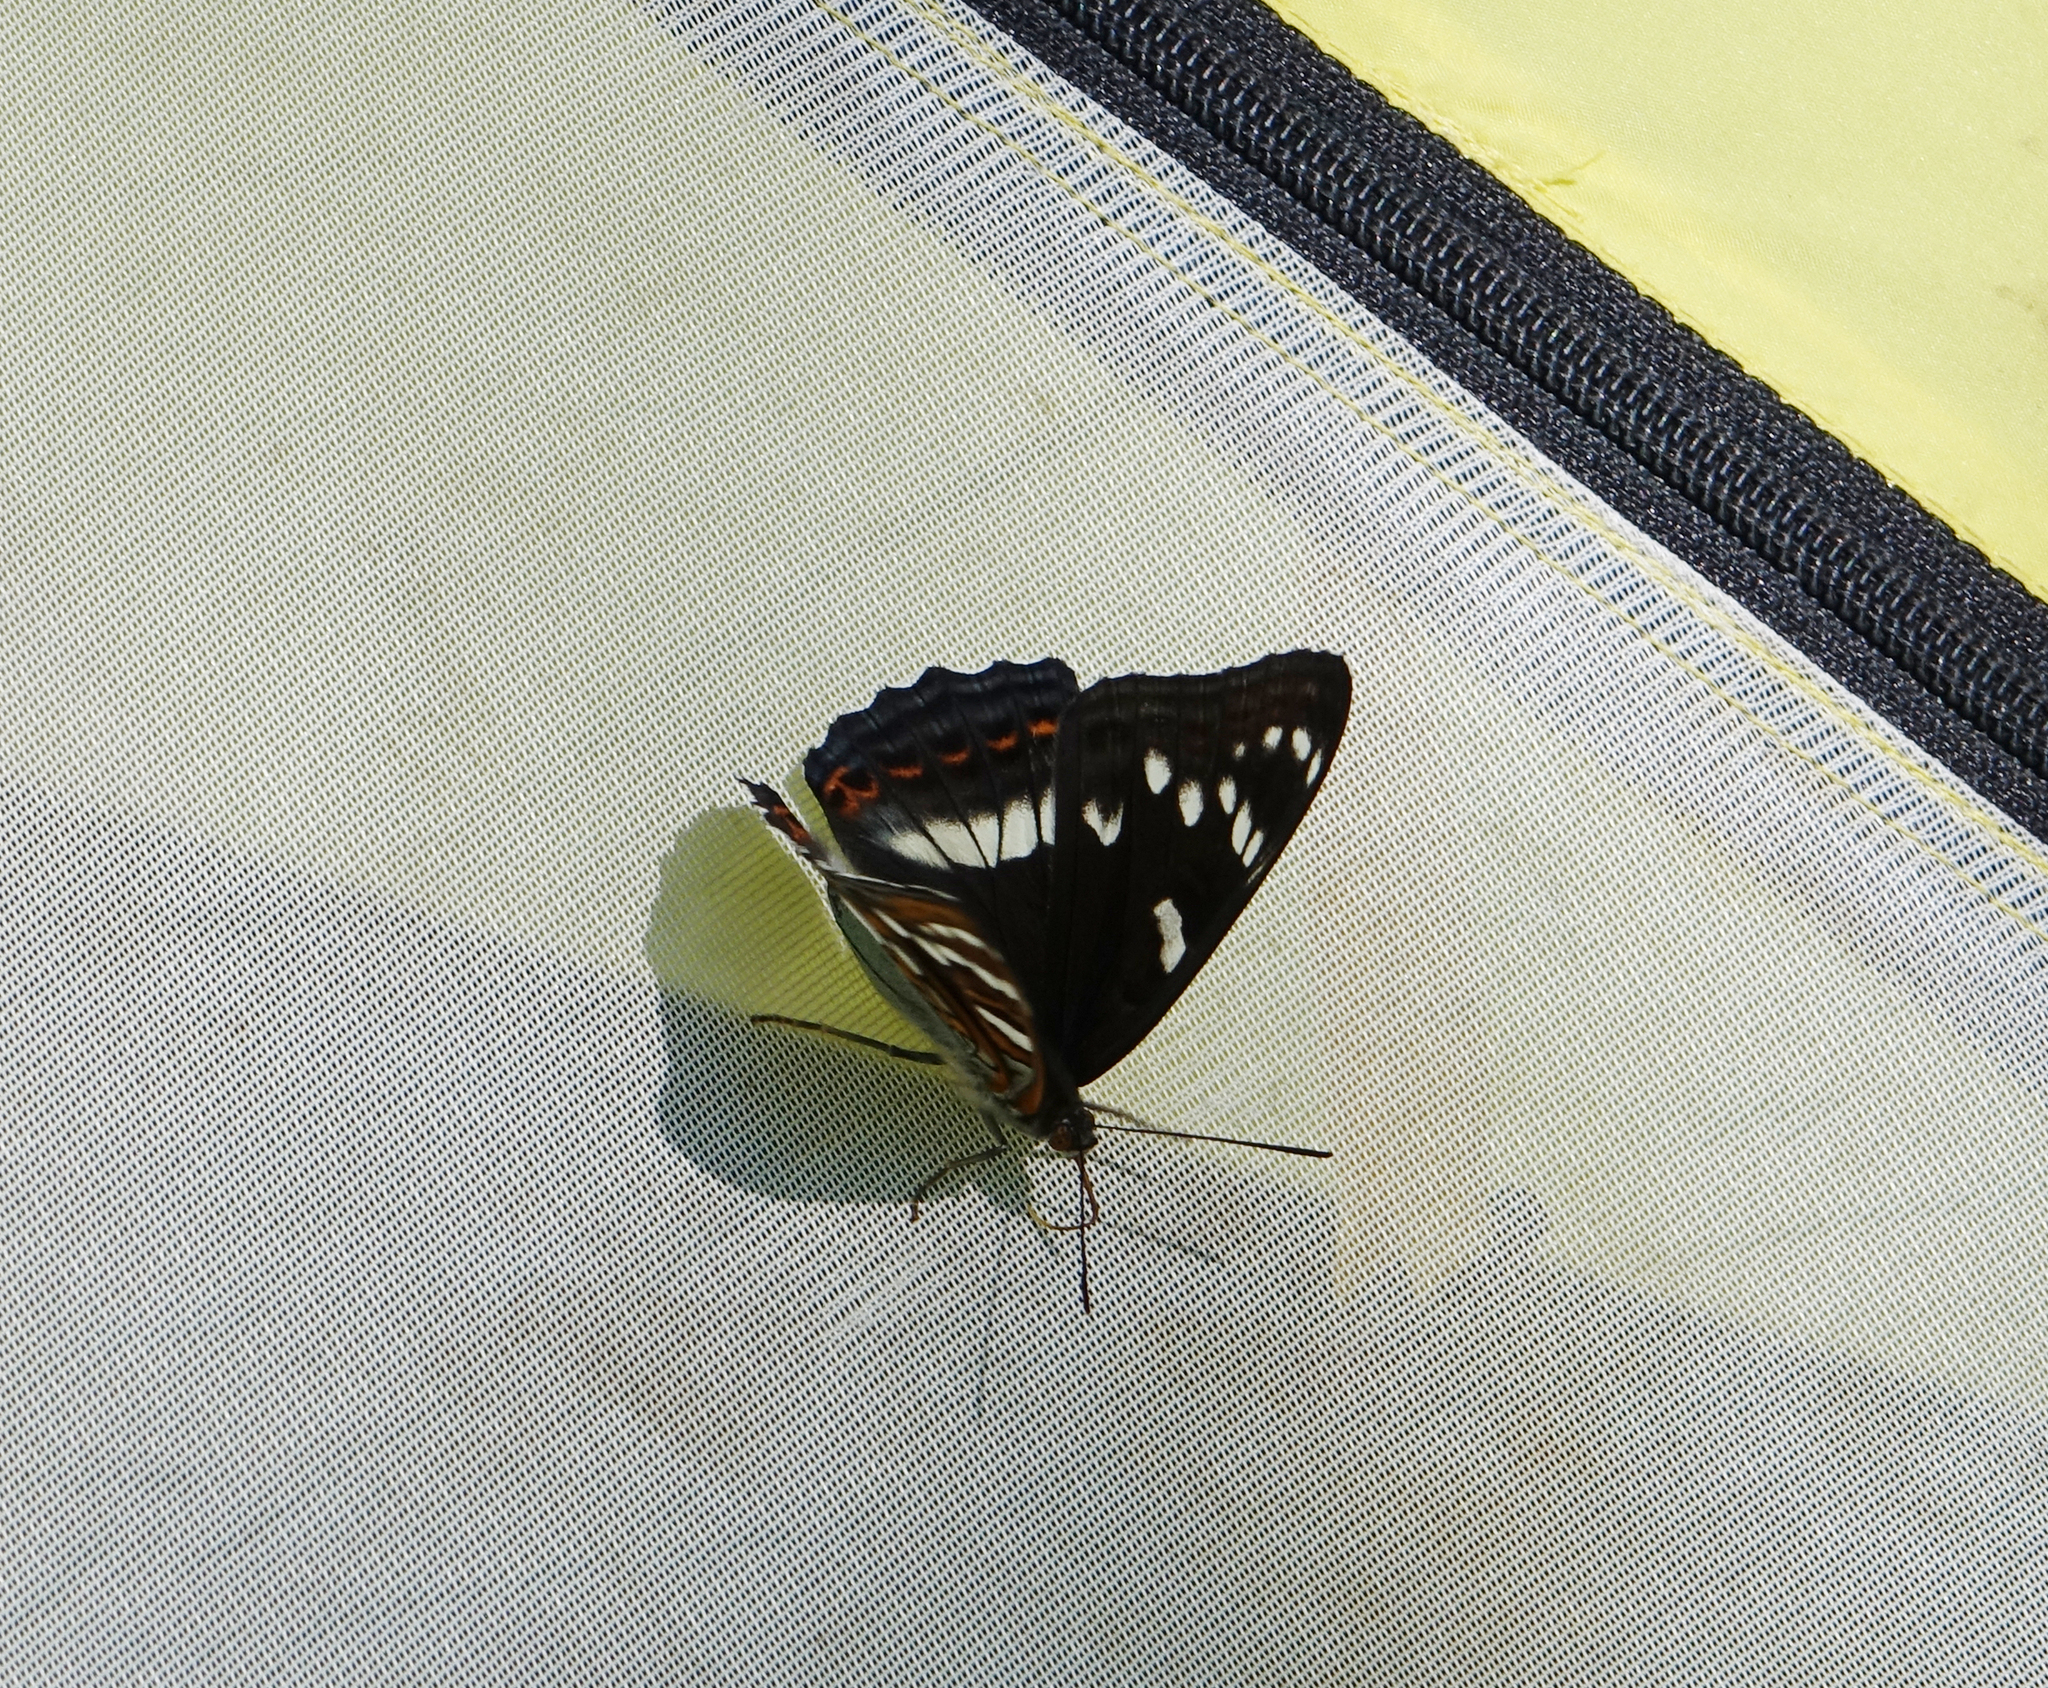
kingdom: Animalia
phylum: Arthropoda
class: Insecta
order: Lepidoptera
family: Nymphalidae
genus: Limenitis
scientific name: Limenitis populi
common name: Poplar admiral
